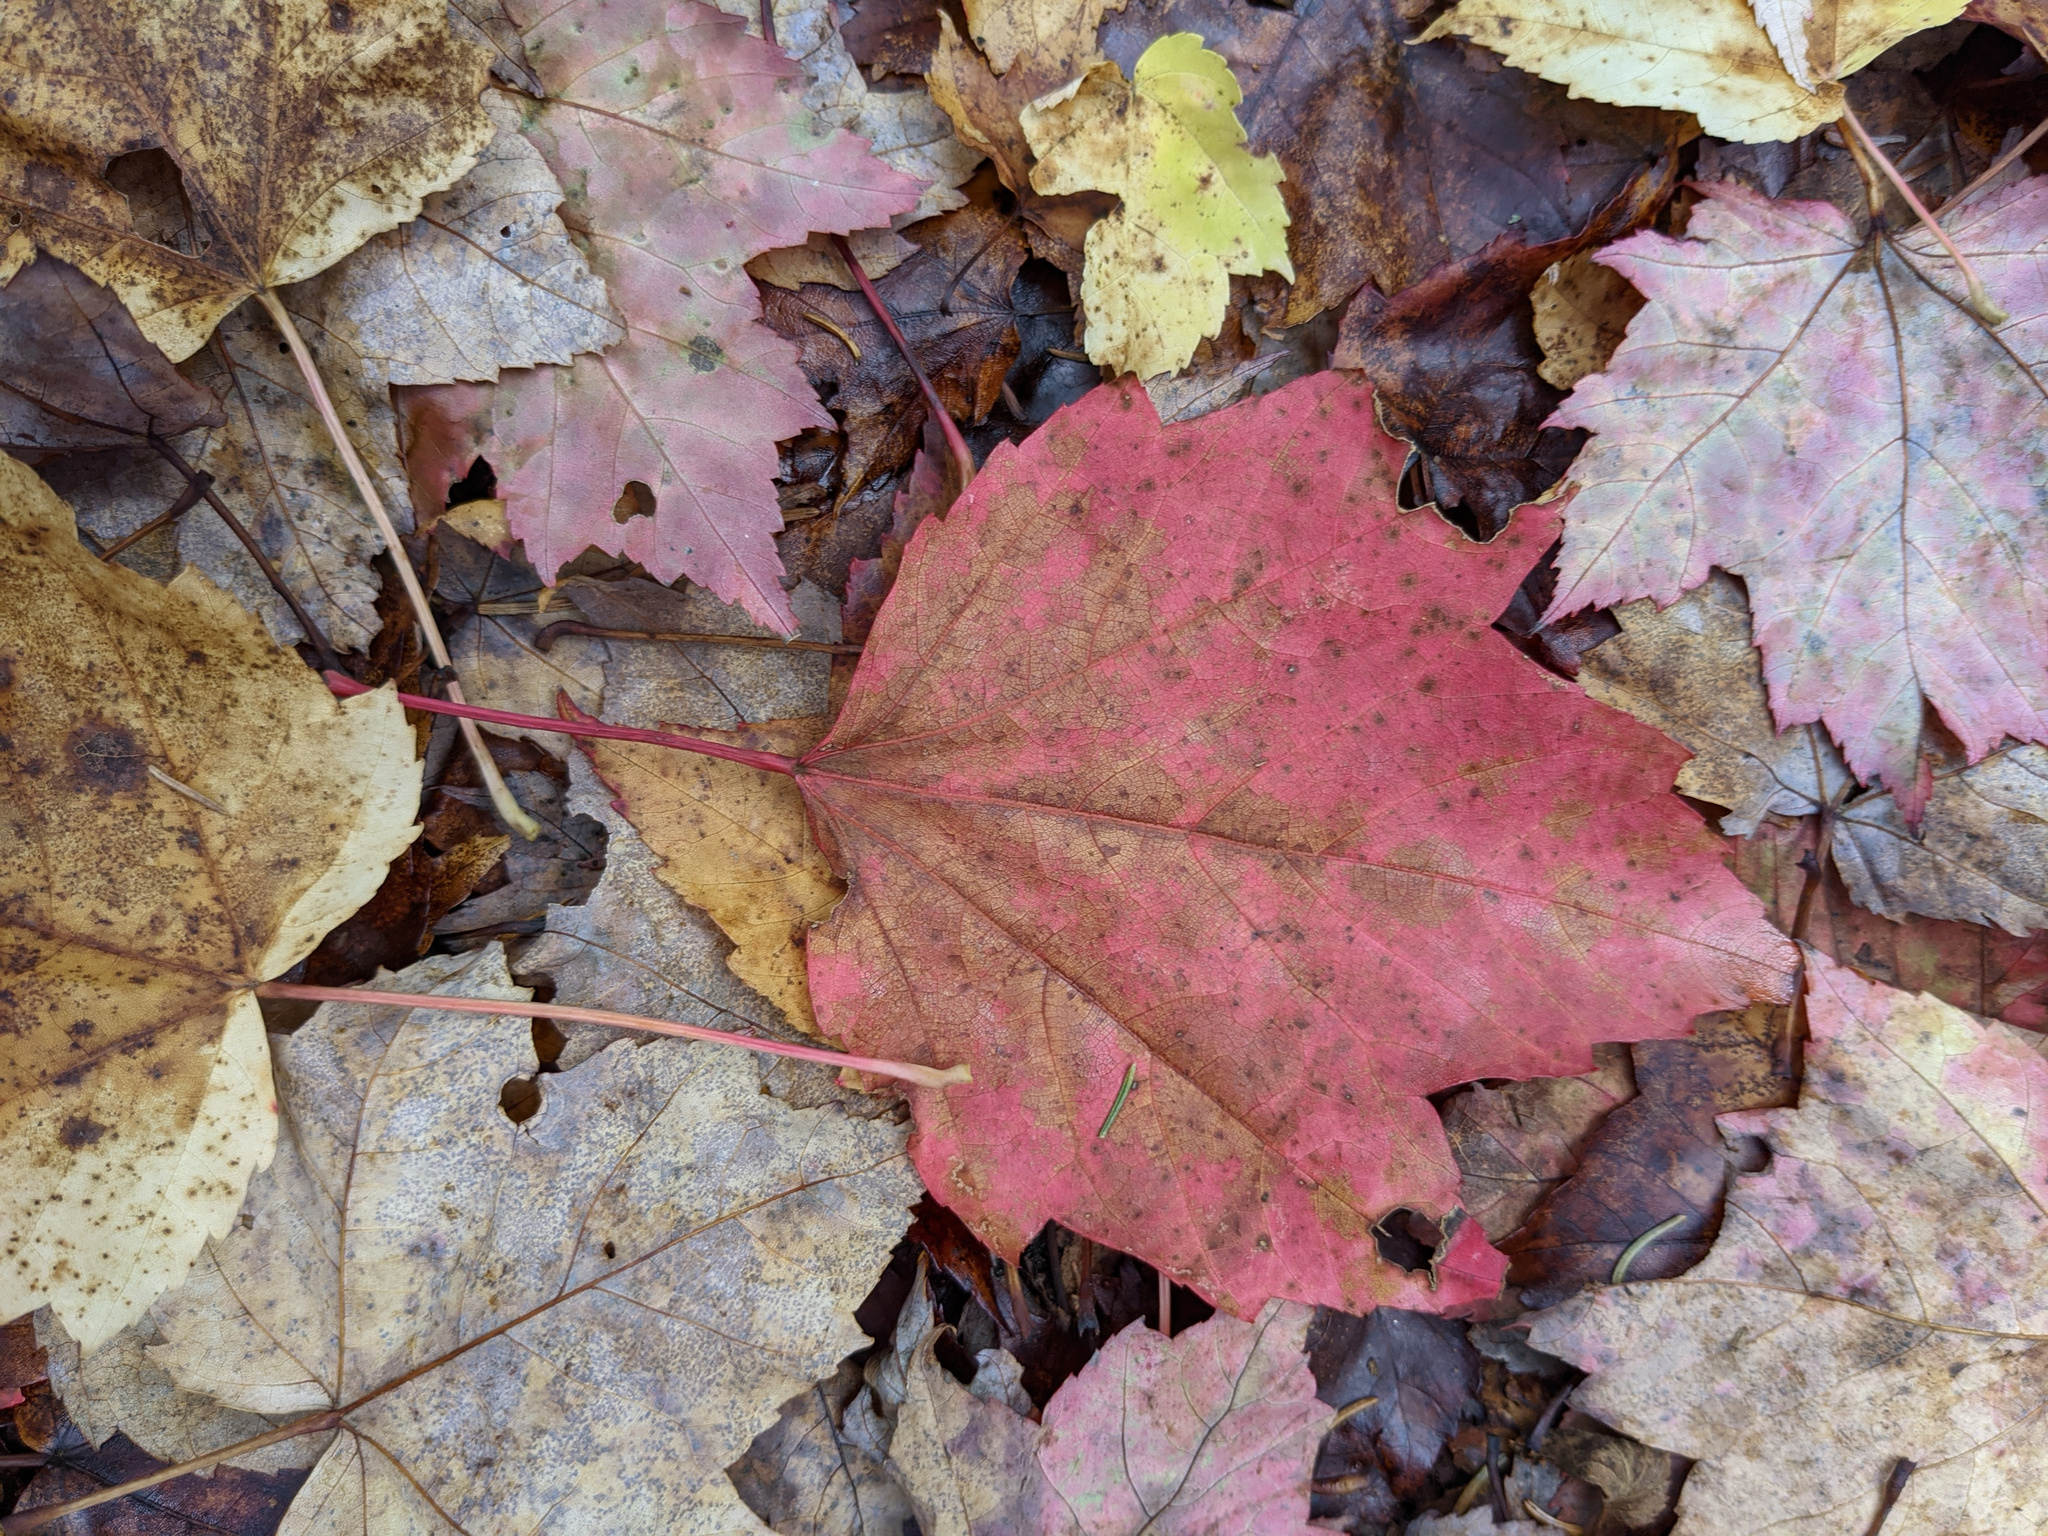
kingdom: Plantae
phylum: Tracheophyta
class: Magnoliopsida
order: Sapindales
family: Sapindaceae
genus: Acer
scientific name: Acer rubrum
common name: Red maple
